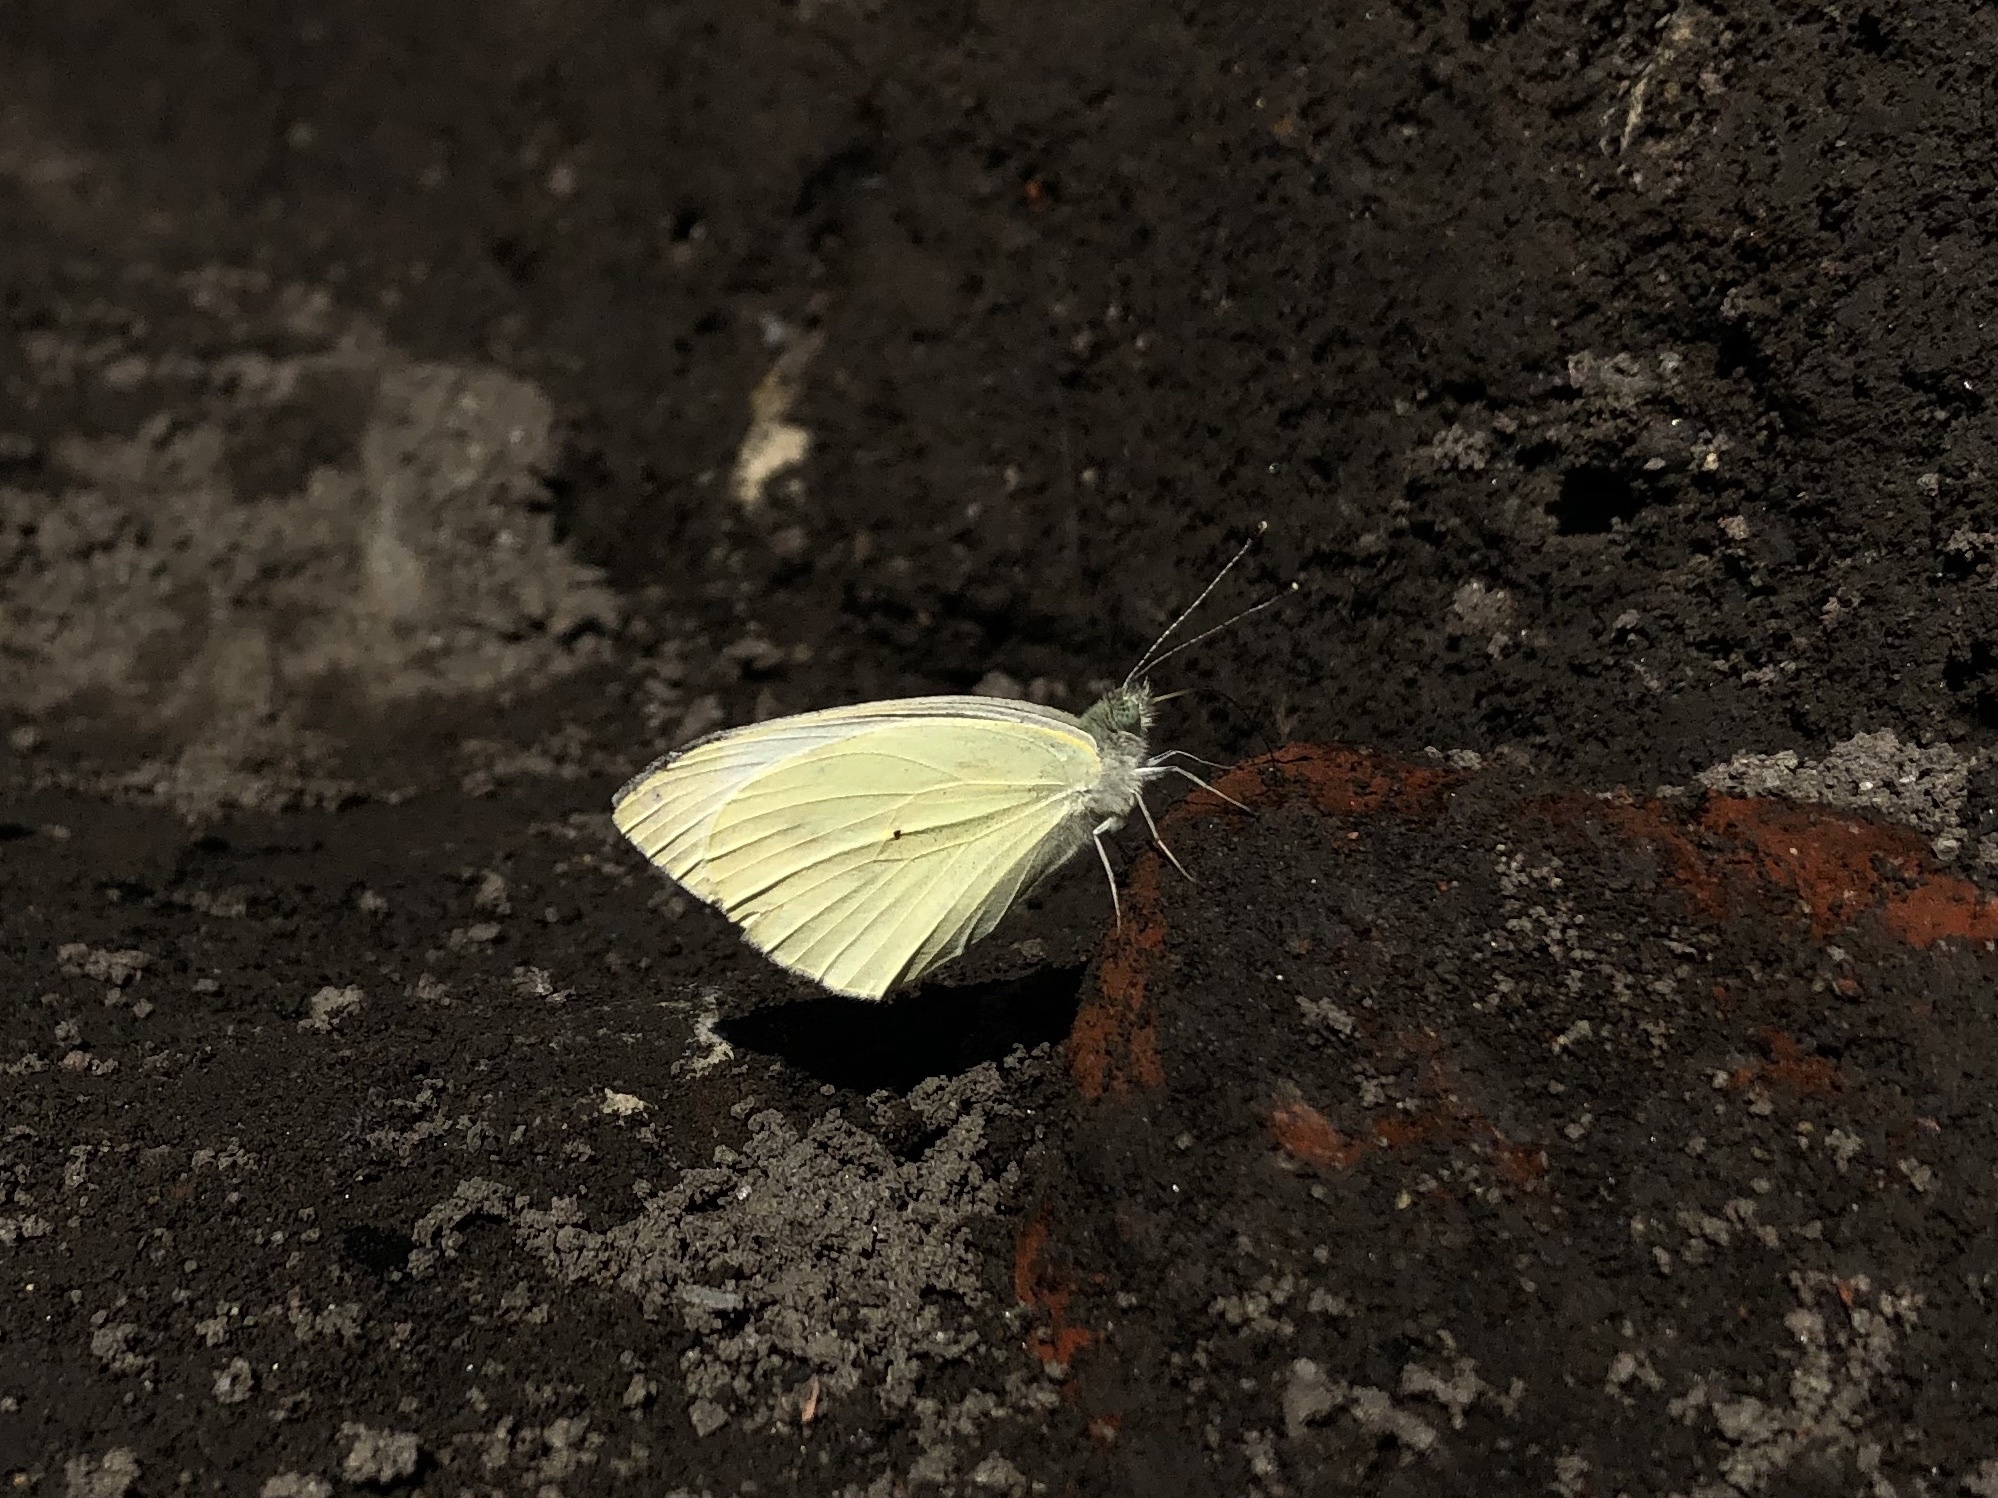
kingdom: Animalia
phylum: Arthropoda
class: Insecta
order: Lepidoptera
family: Pieridae
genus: Pieris
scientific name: Pieris rapae
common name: Small white
